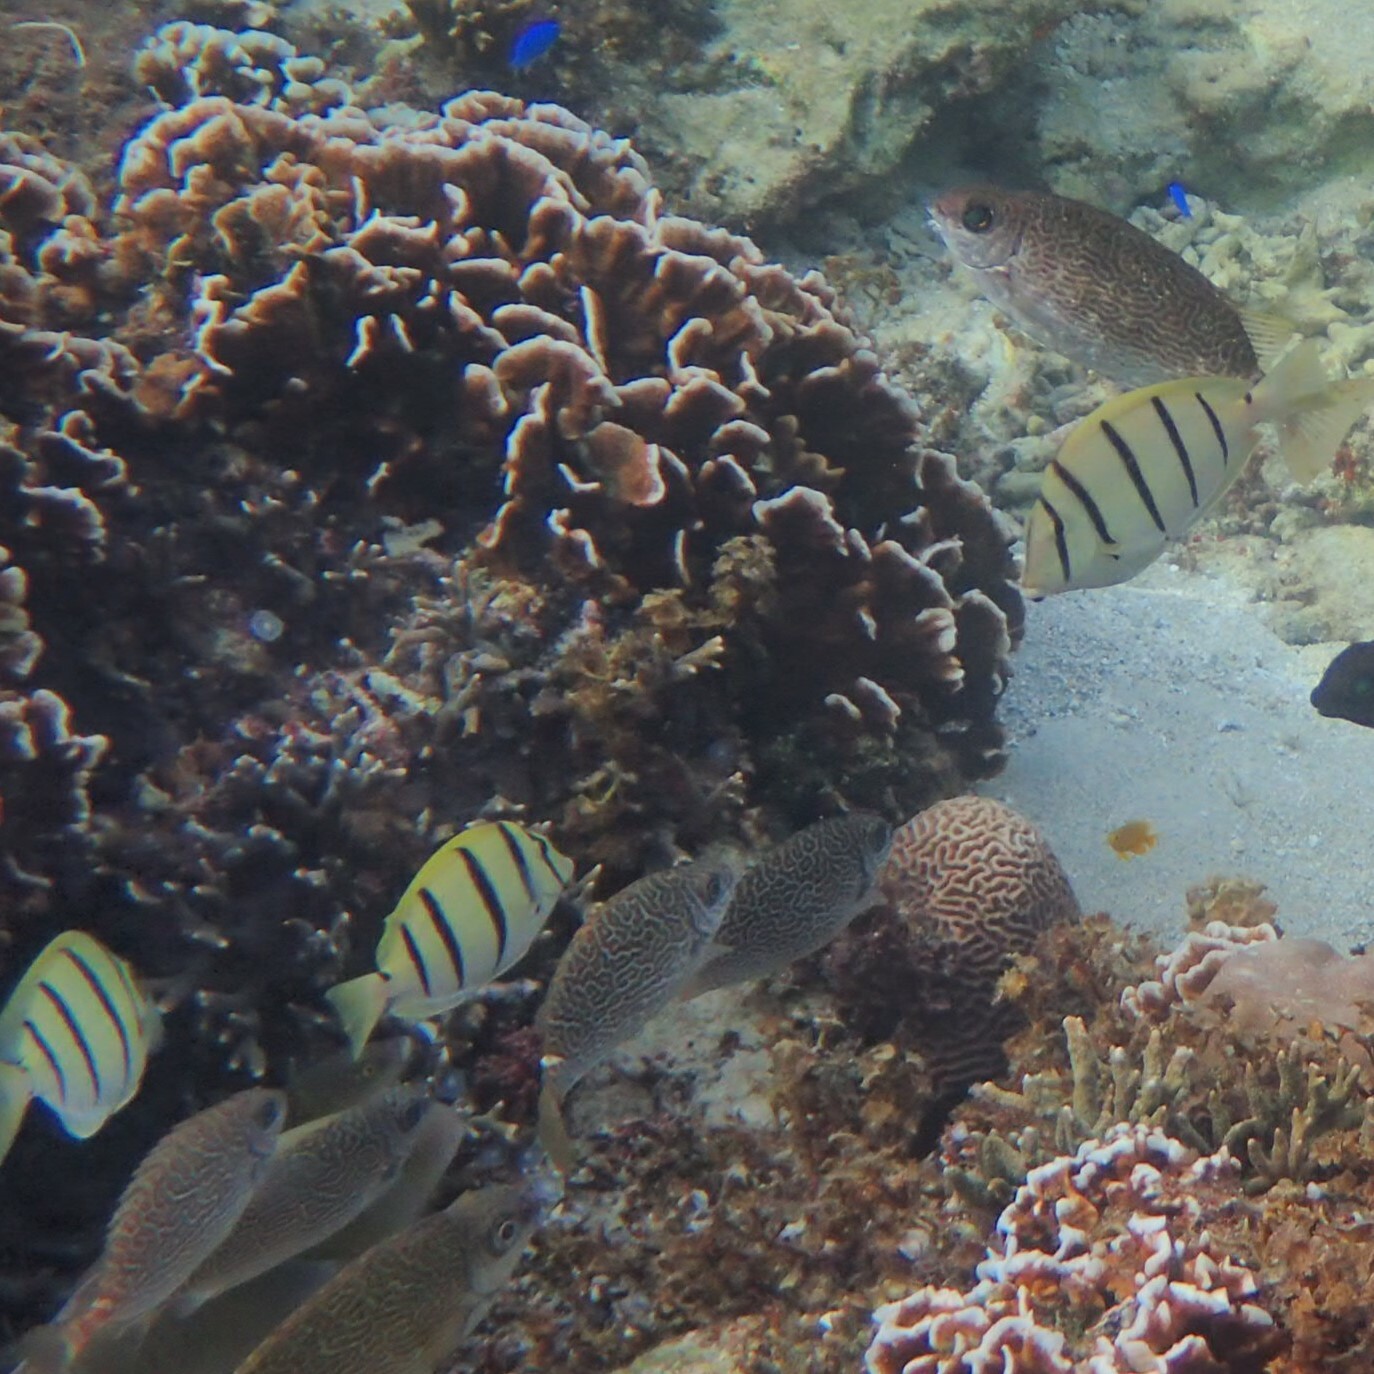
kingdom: Animalia
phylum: Chordata
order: Perciformes
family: Siganidae
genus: Siganus
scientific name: Siganus spinus
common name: Scribbled rabbitfish
